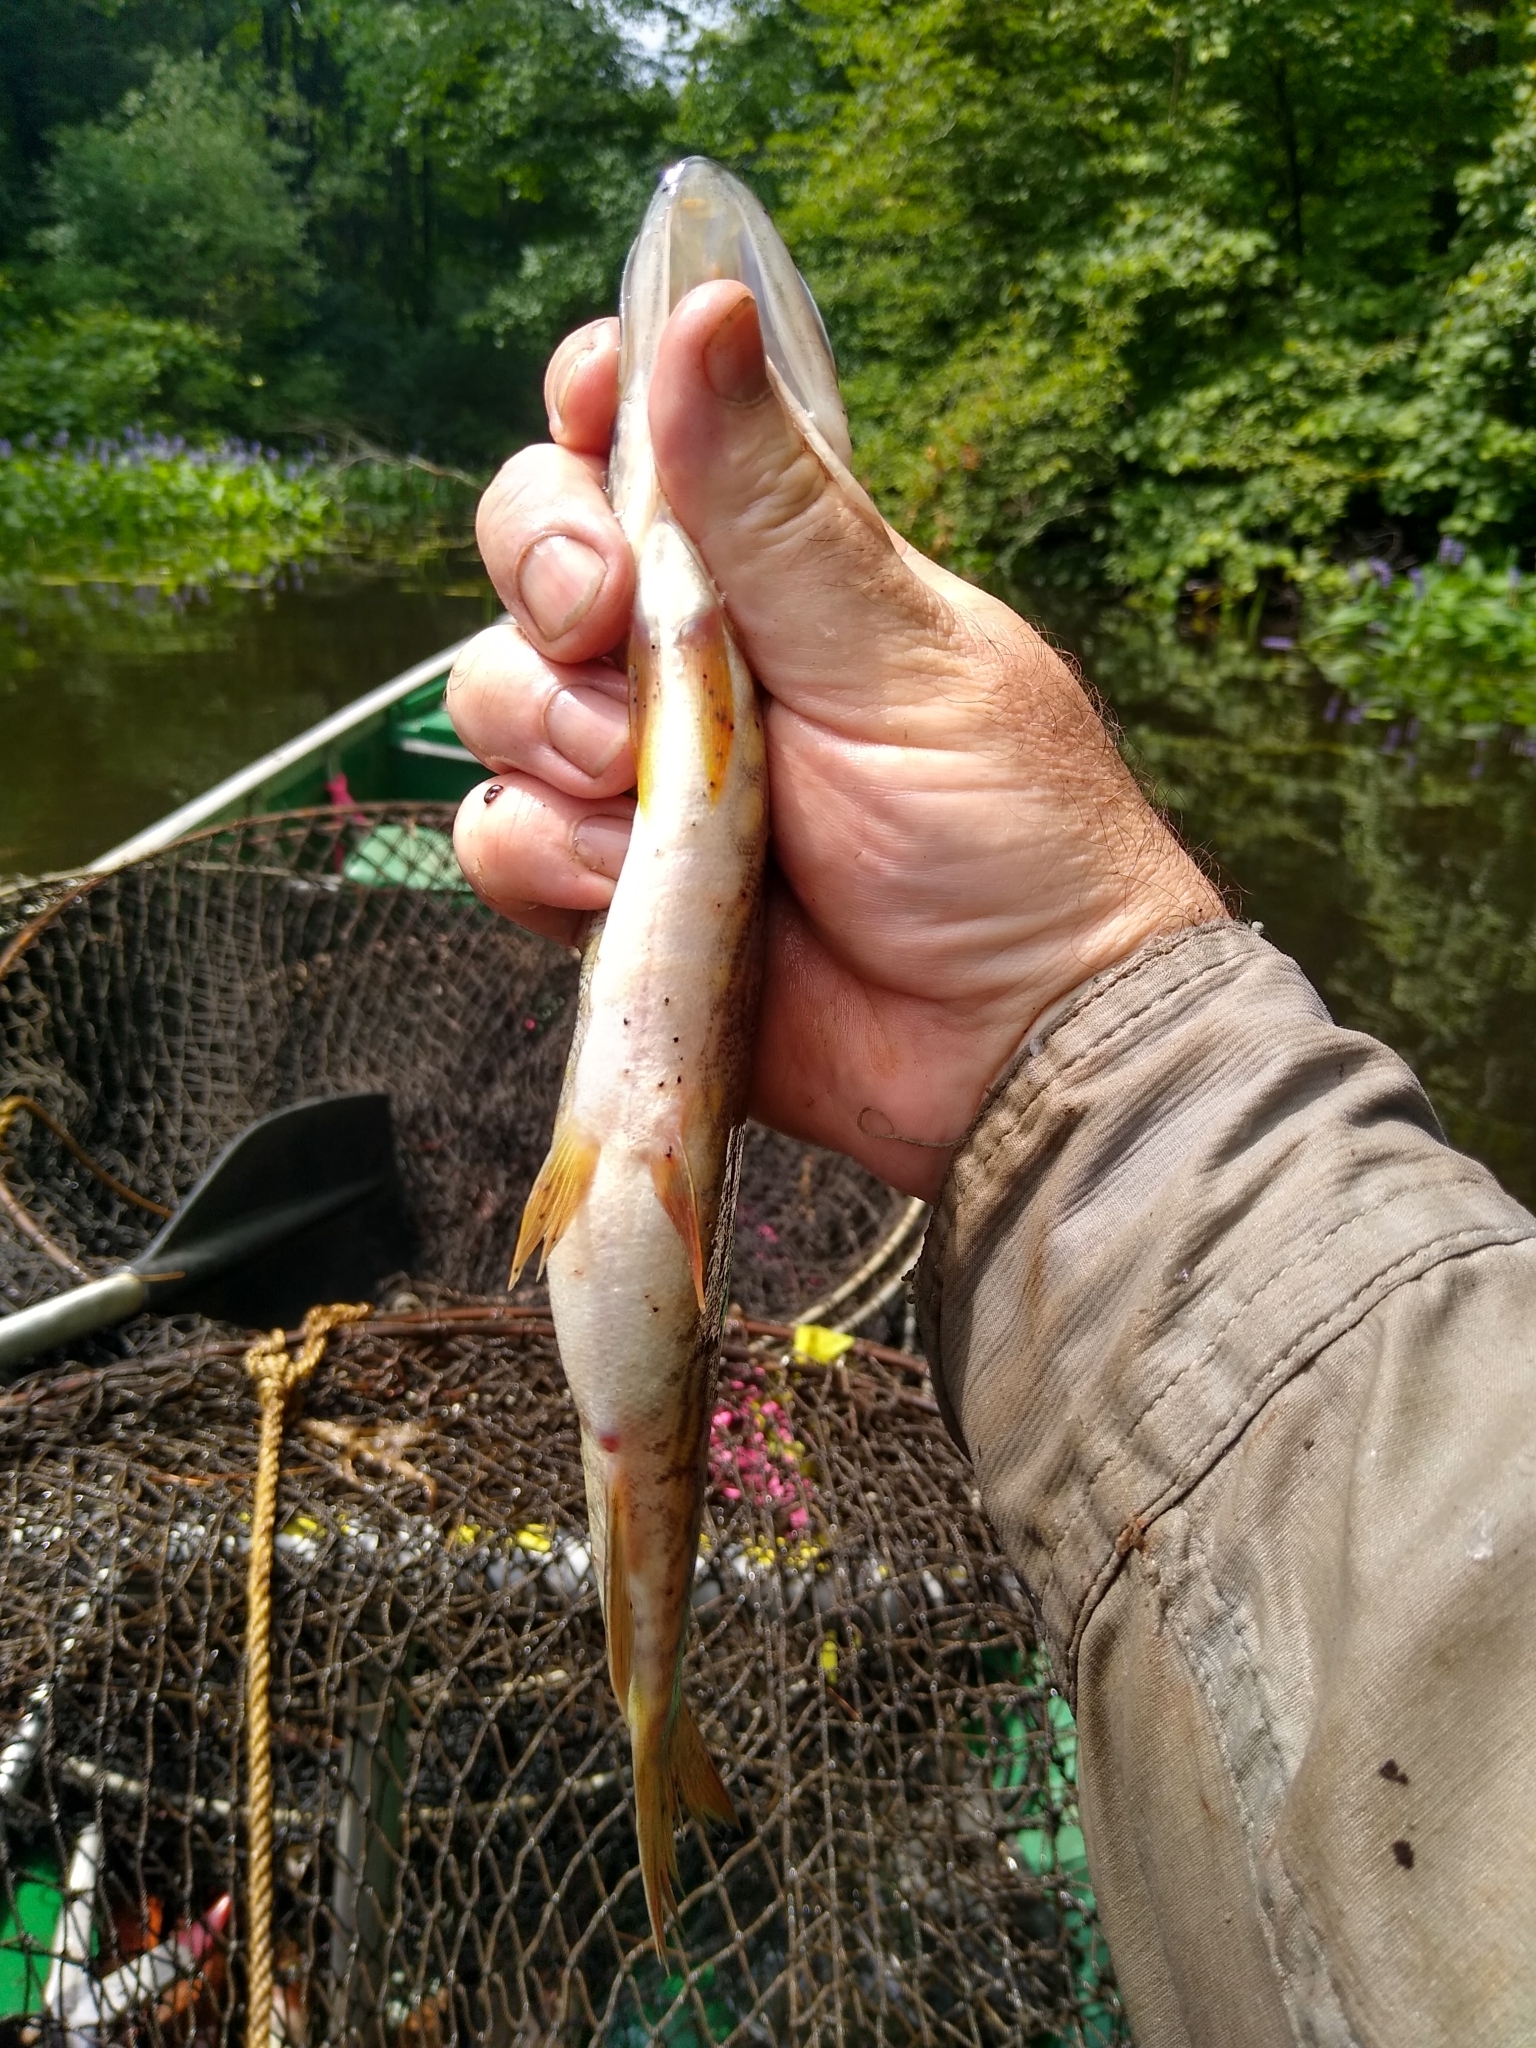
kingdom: Animalia
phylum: Chordata
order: Esociformes
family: Esocidae
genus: Esox
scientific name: Esox niger
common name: Chain pickerel
